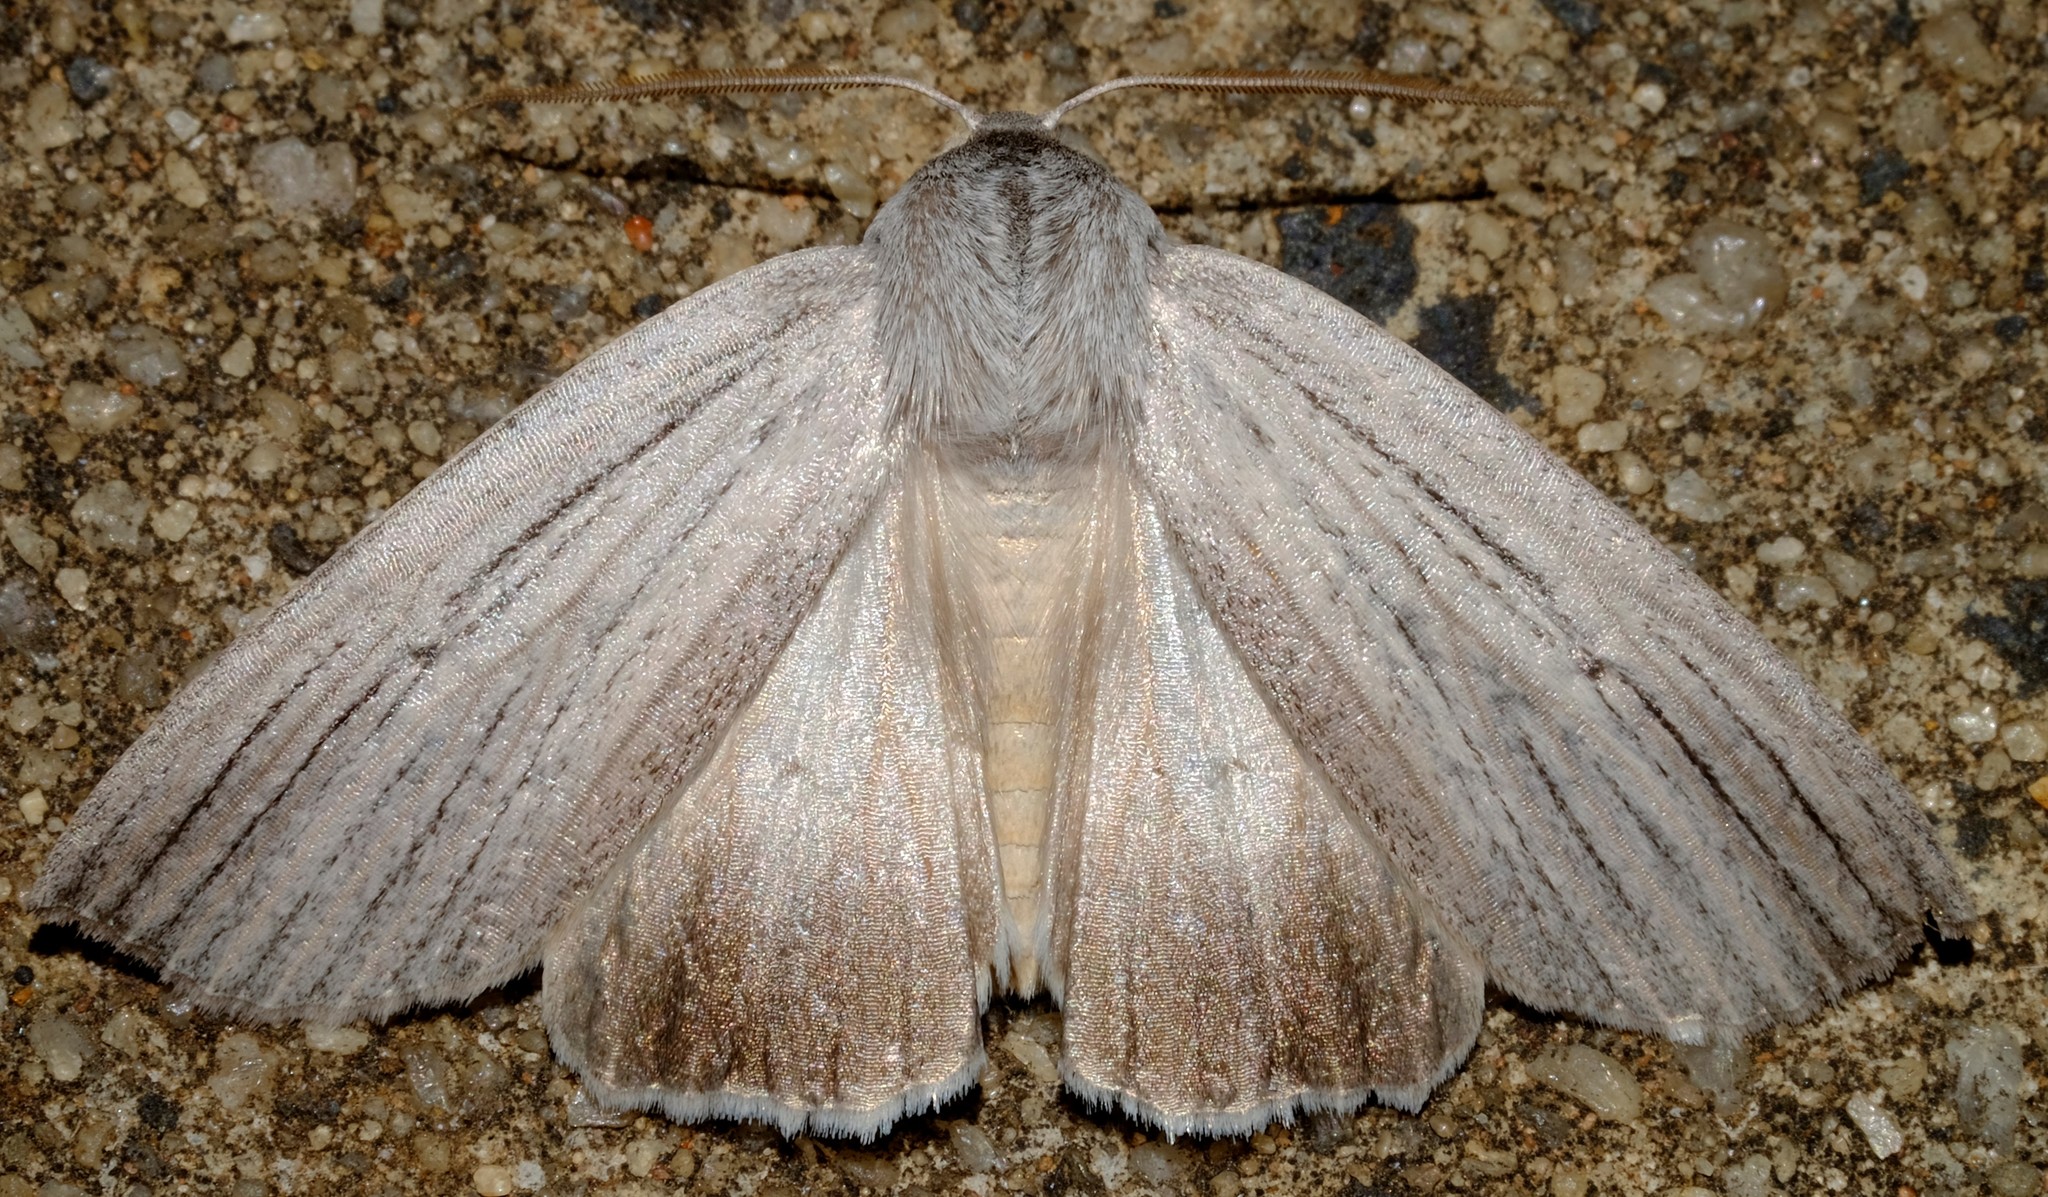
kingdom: Animalia
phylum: Arthropoda
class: Insecta
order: Lepidoptera
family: Geometridae
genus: Paralaea
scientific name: Paralaea polysticha
